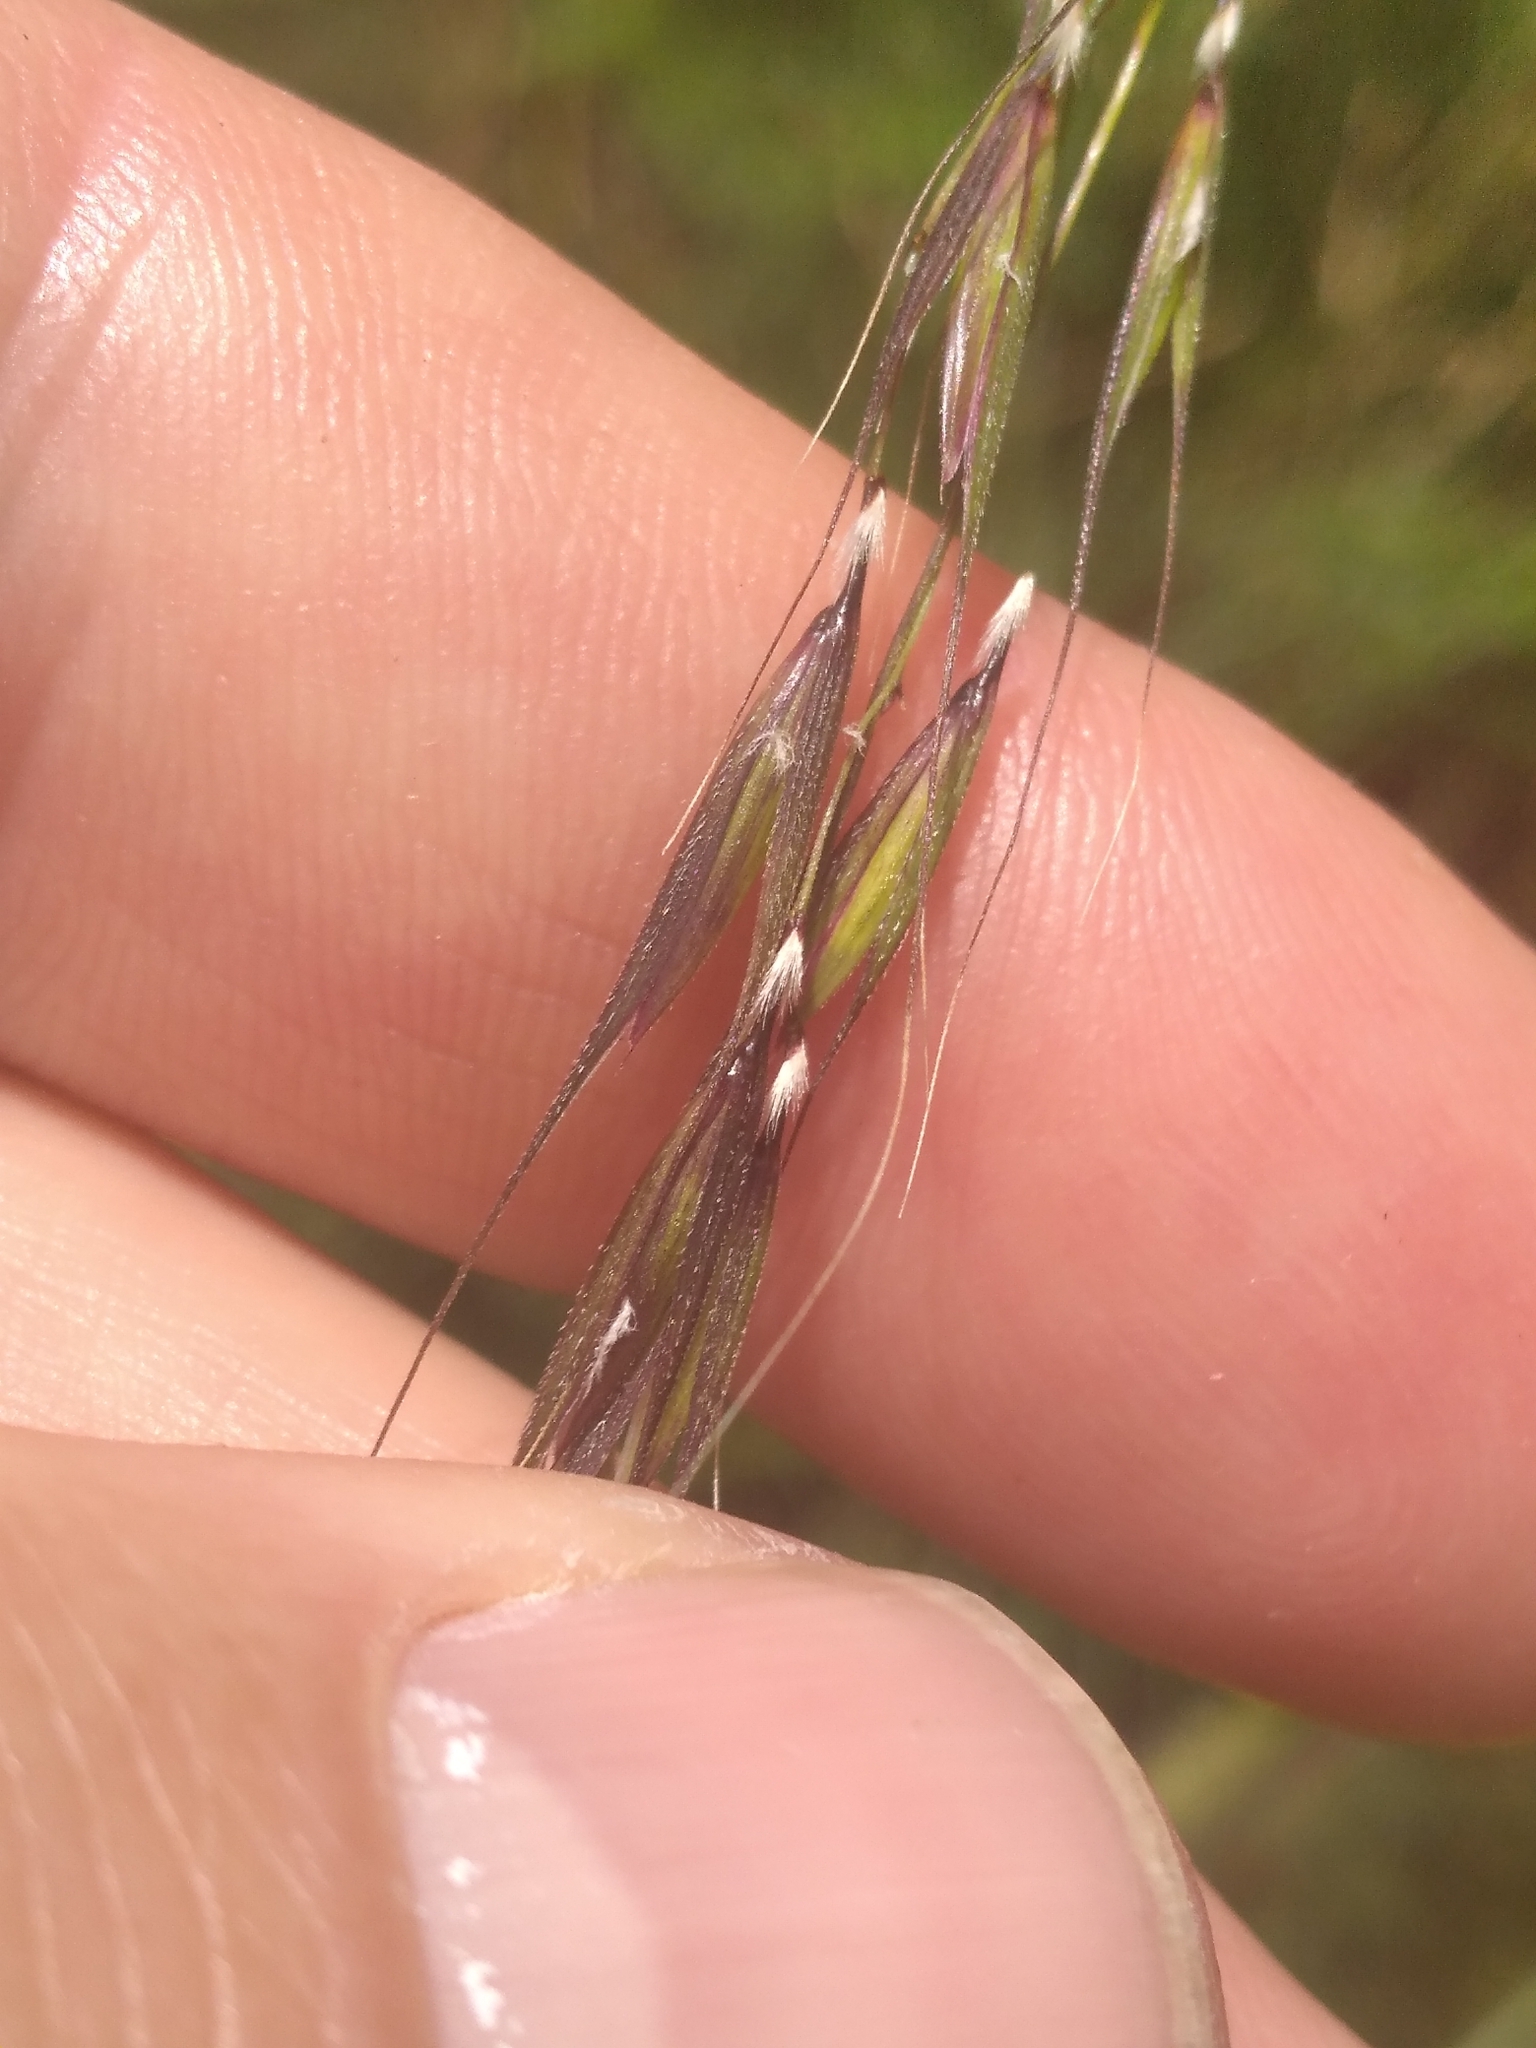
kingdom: Plantae
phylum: Tracheophyta
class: Liliopsida
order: Poales
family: Poaceae
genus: Microlaena
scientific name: Microlaena stipoides
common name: Meadow ricegrass
